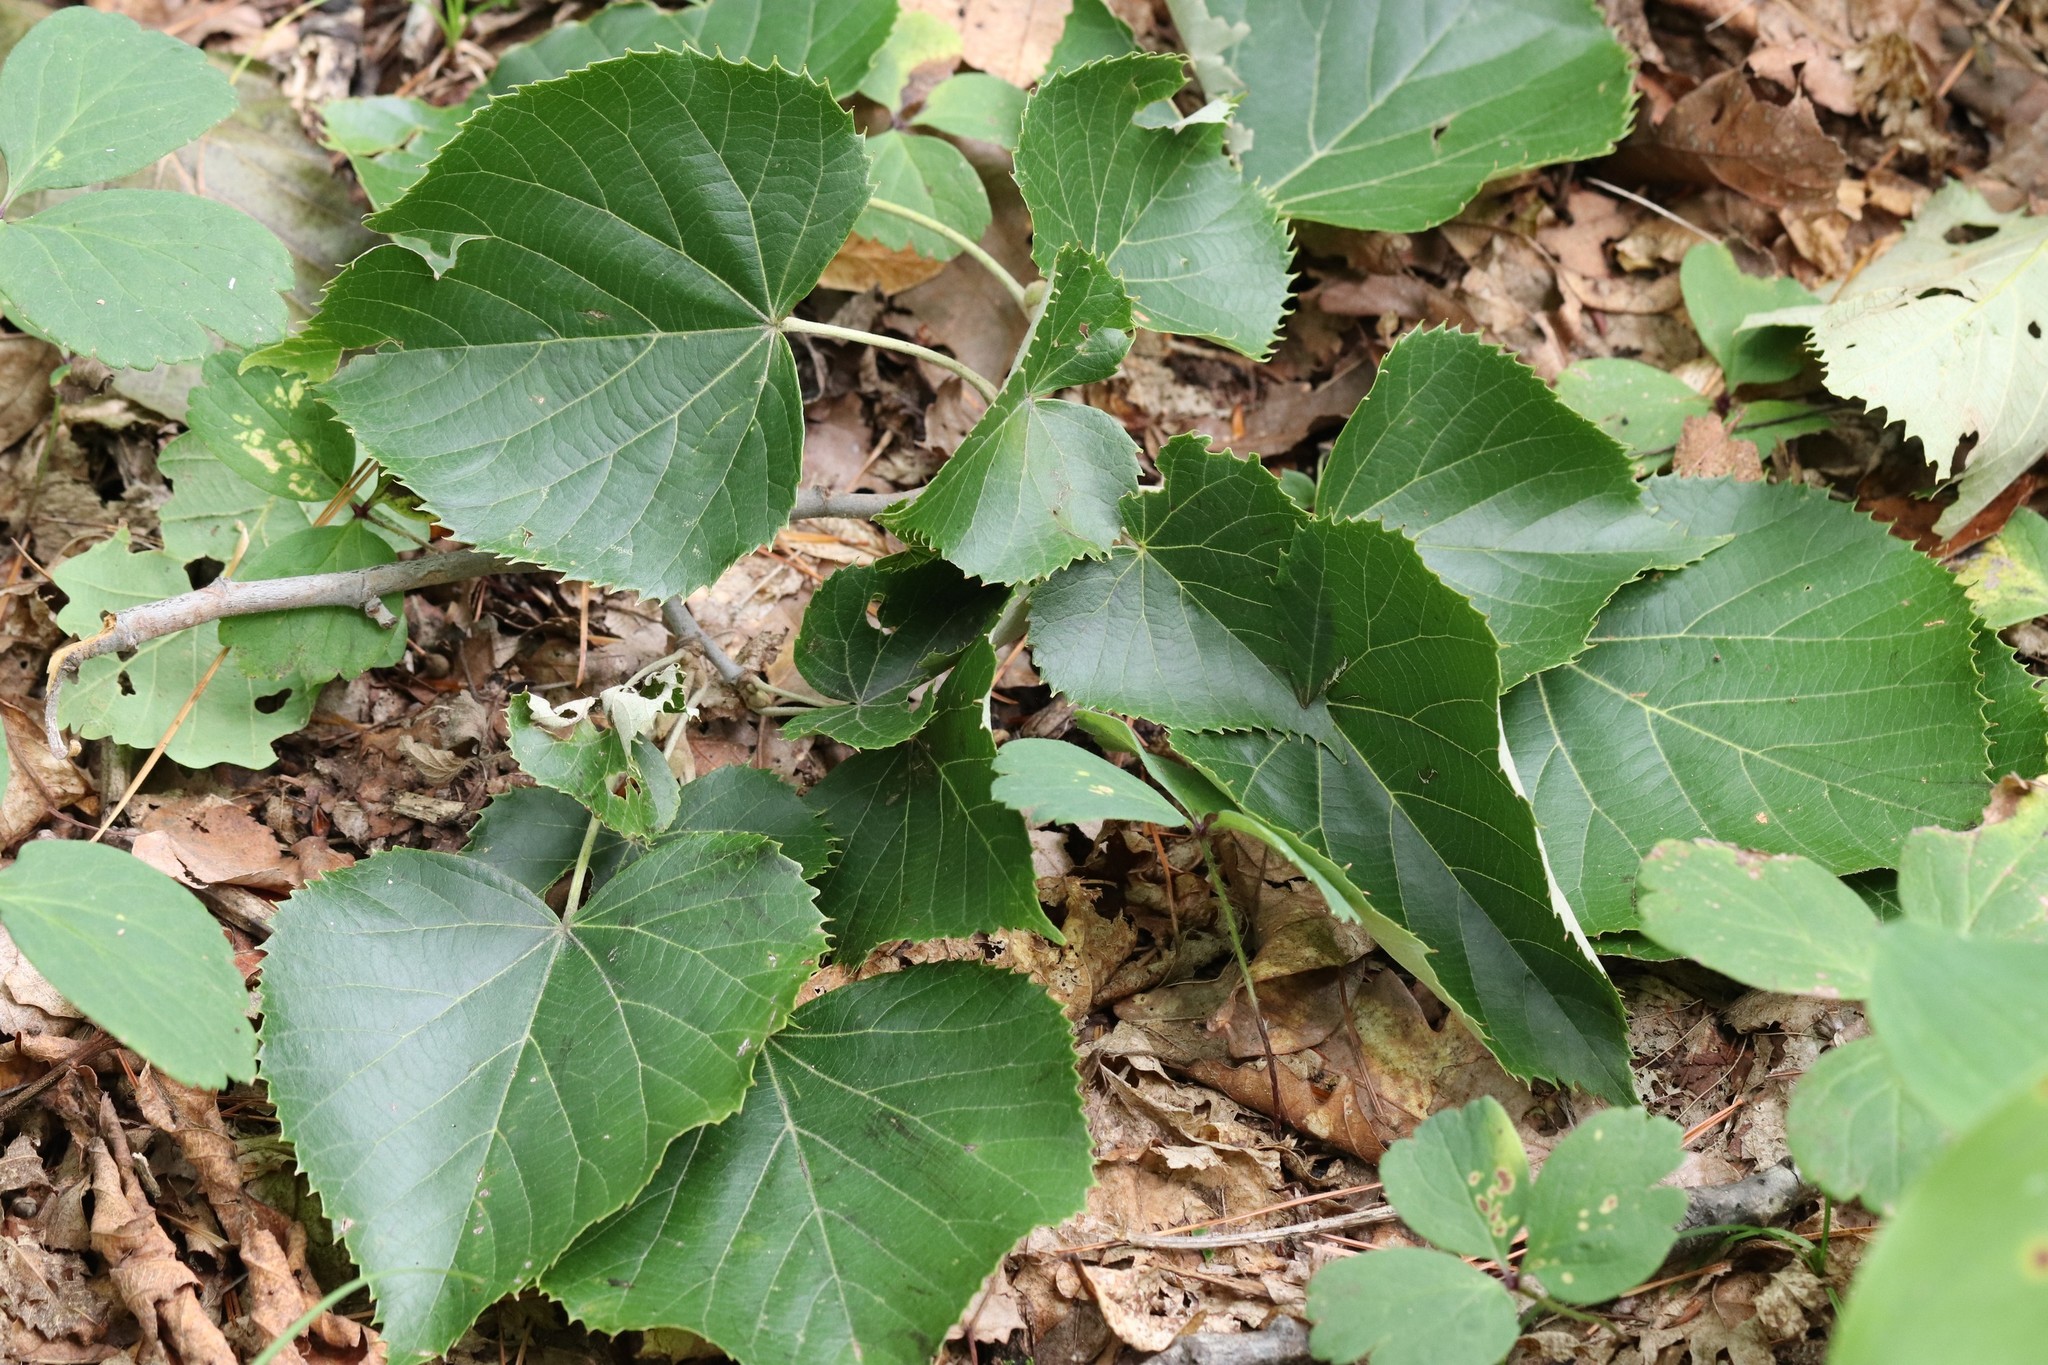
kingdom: Plantae
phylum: Tracheophyta
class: Magnoliopsida
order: Malvales
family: Malvaceae
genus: Tilia
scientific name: Tilia mandshurica
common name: Manchurian linden
